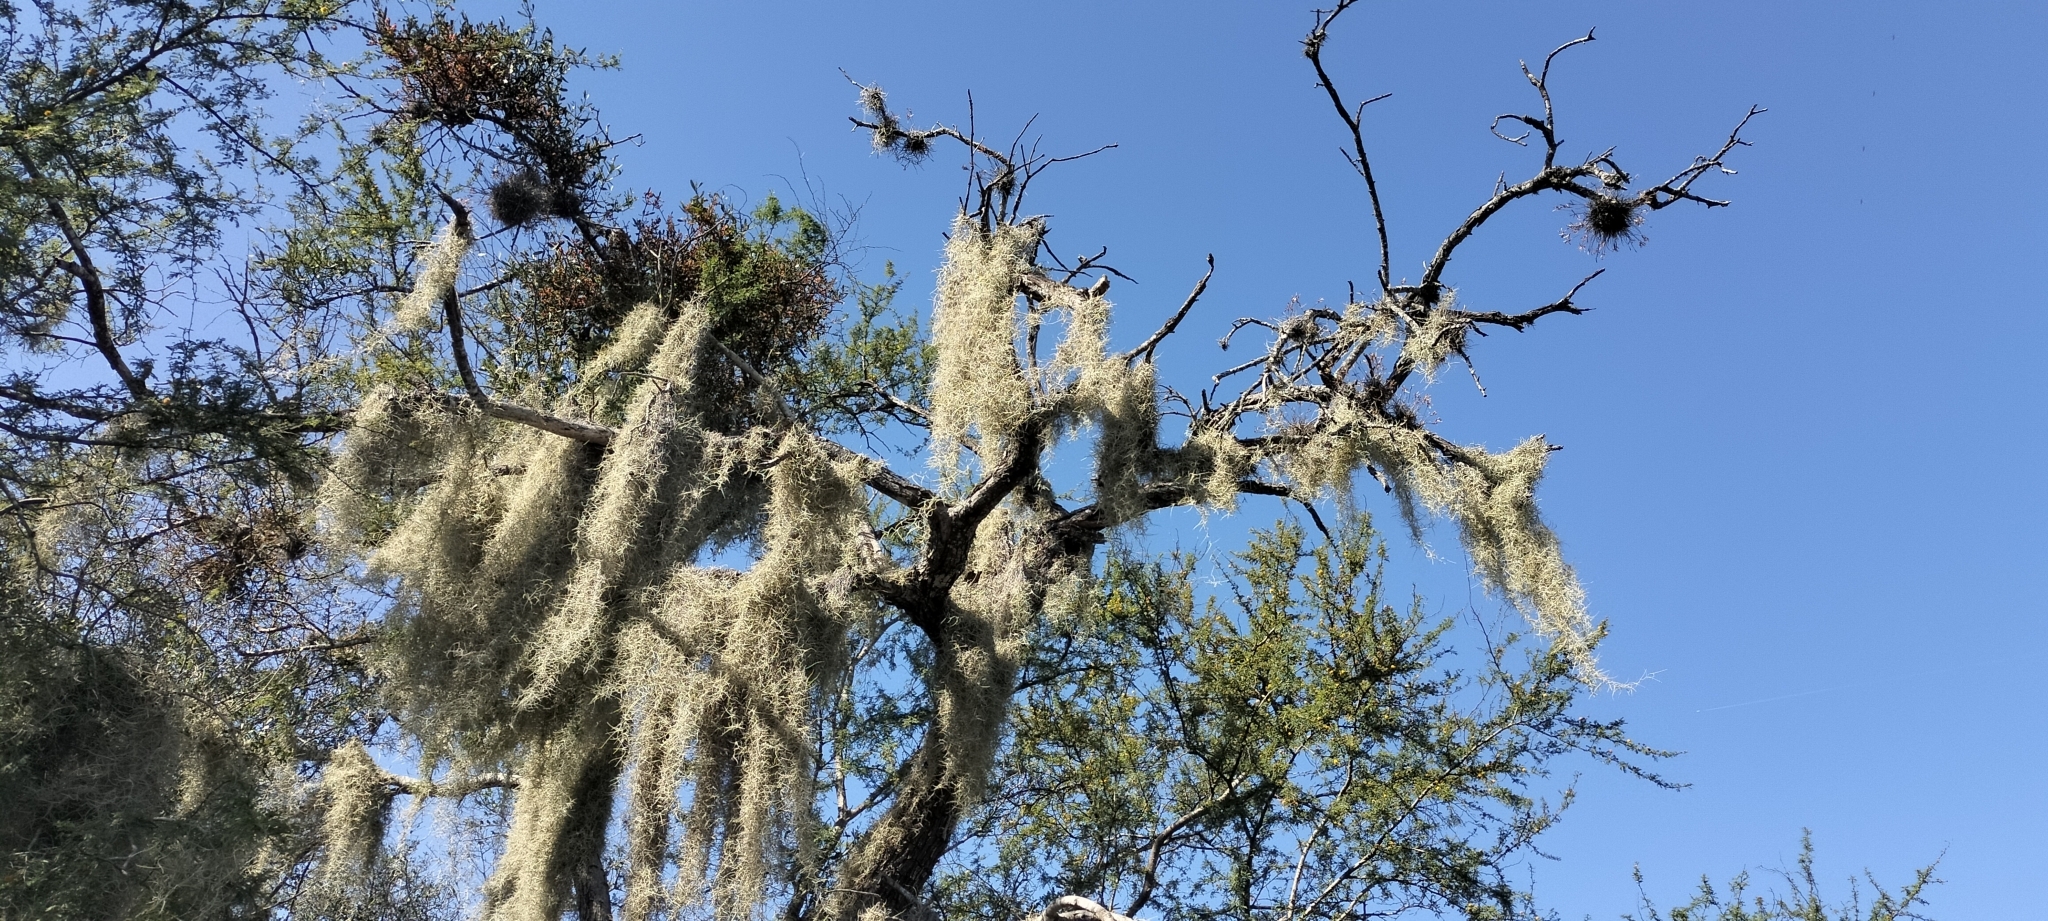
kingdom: Plantae
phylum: Tracheophyta
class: Liliopsida
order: Poales
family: Bromeliaceae
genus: Tillandsia
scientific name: Tillandsia usneoides
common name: Spanish moss
